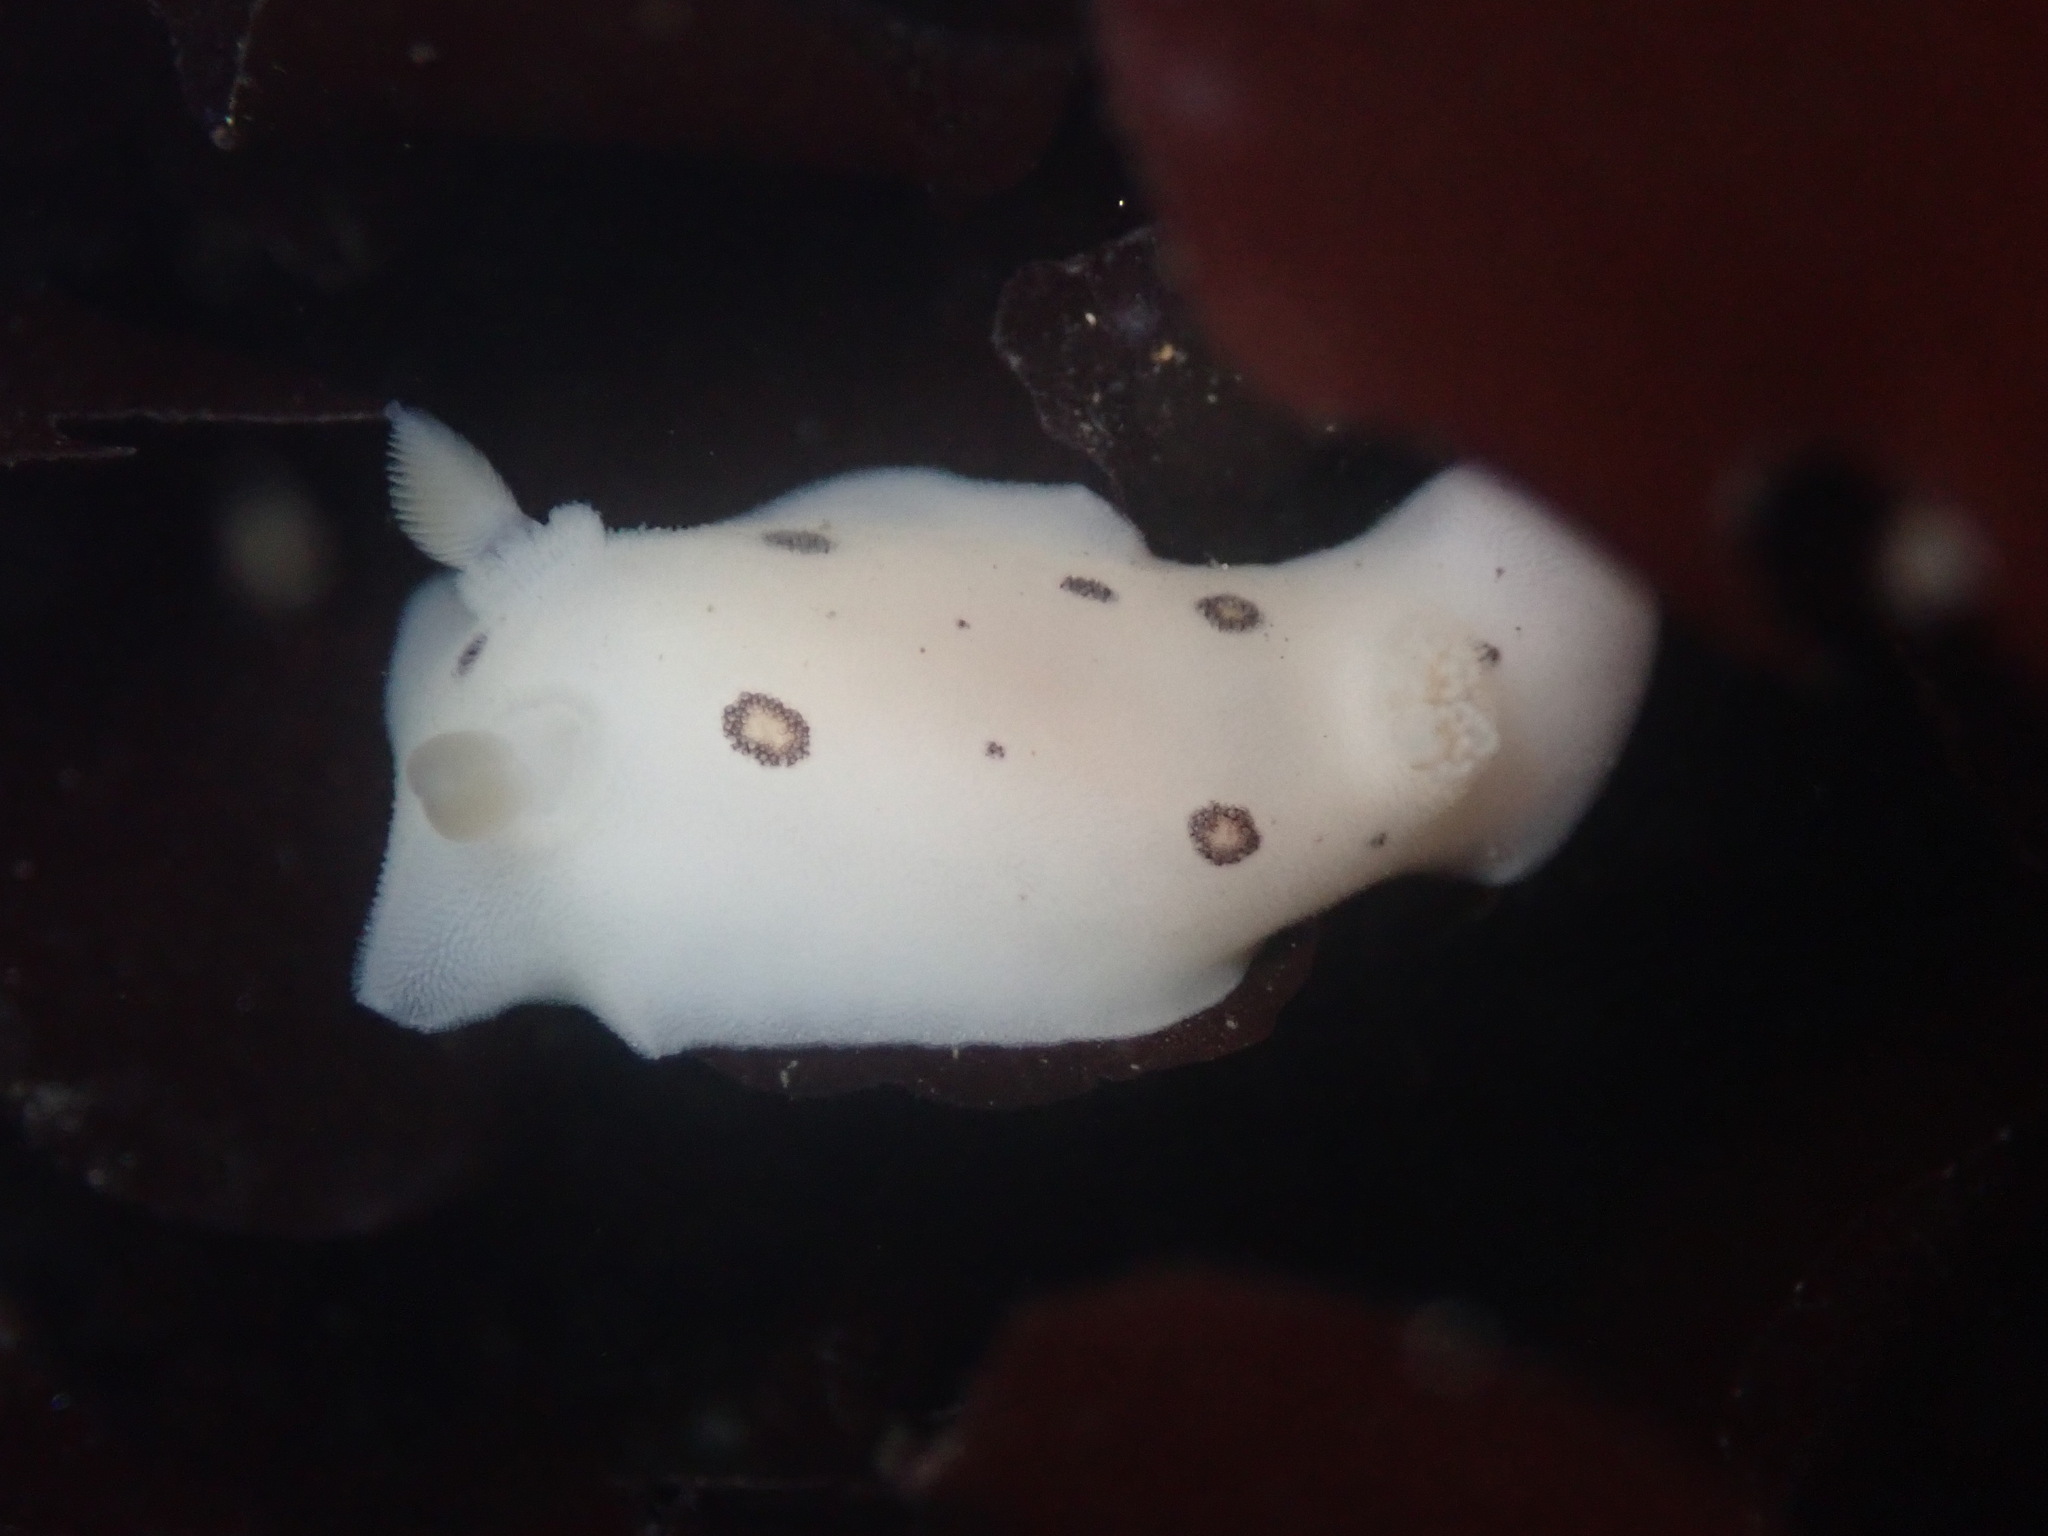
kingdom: Animalia
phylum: Mollusca
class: Gastropoda
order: Nudibranchia
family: Discodorididae
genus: Diaulula
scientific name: Diaulula sandiegensis
